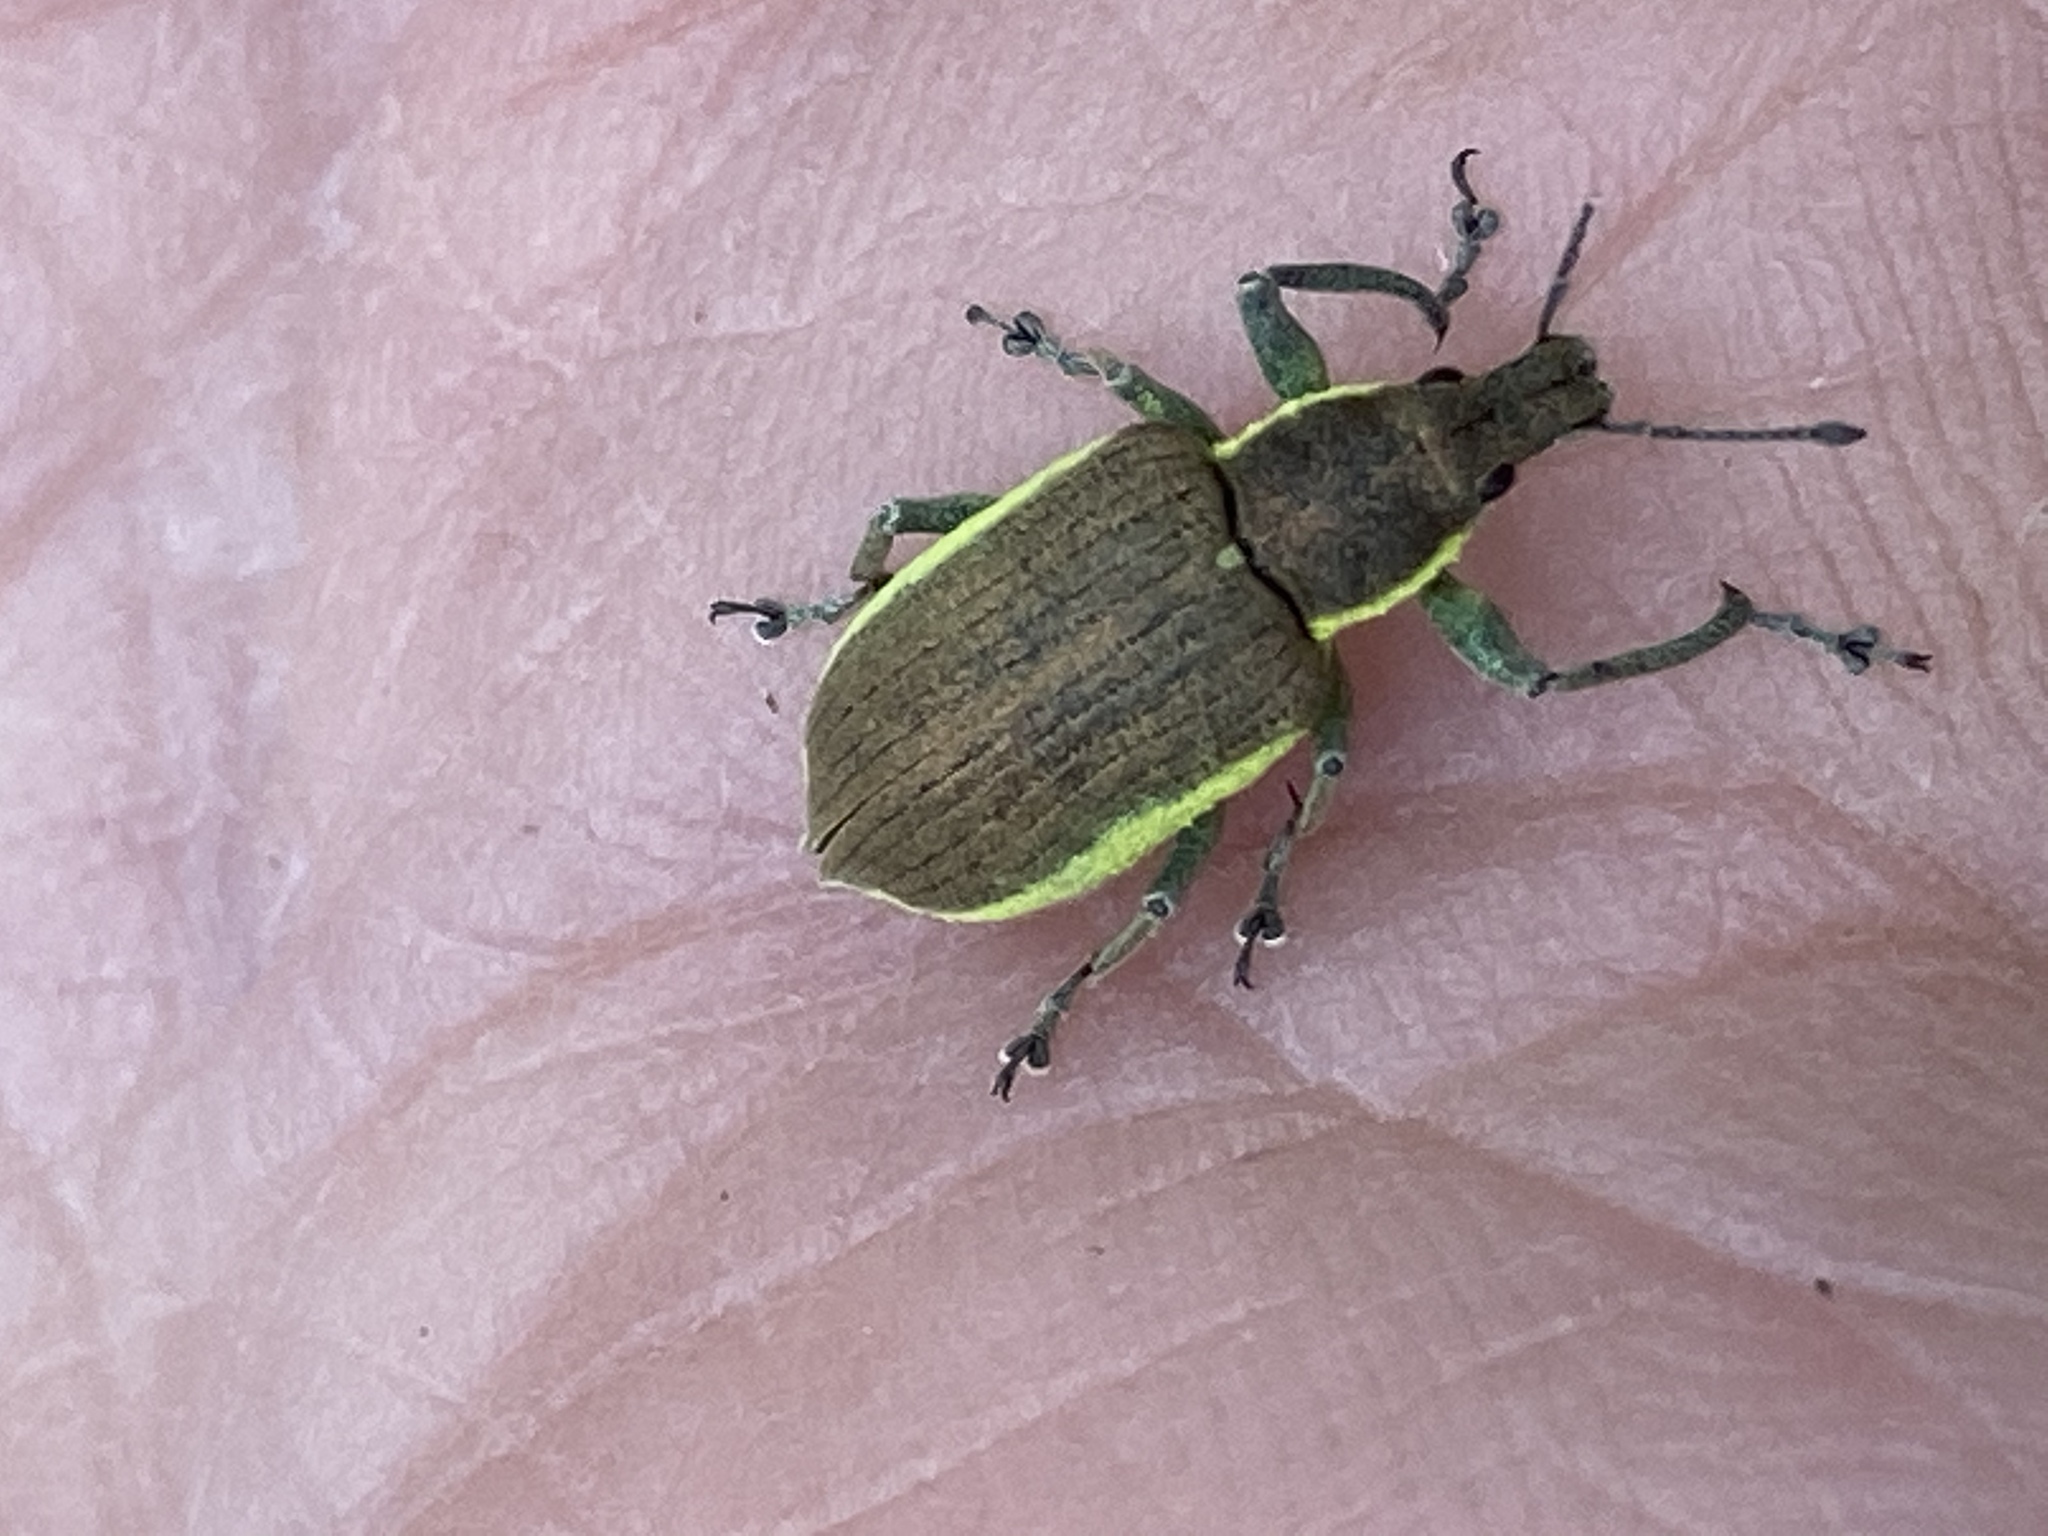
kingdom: Animalia
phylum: Arthropoda
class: Insecta
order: Coleoptera
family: Curculionidae
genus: Chlorophanus
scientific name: Chlorophanus viridis
